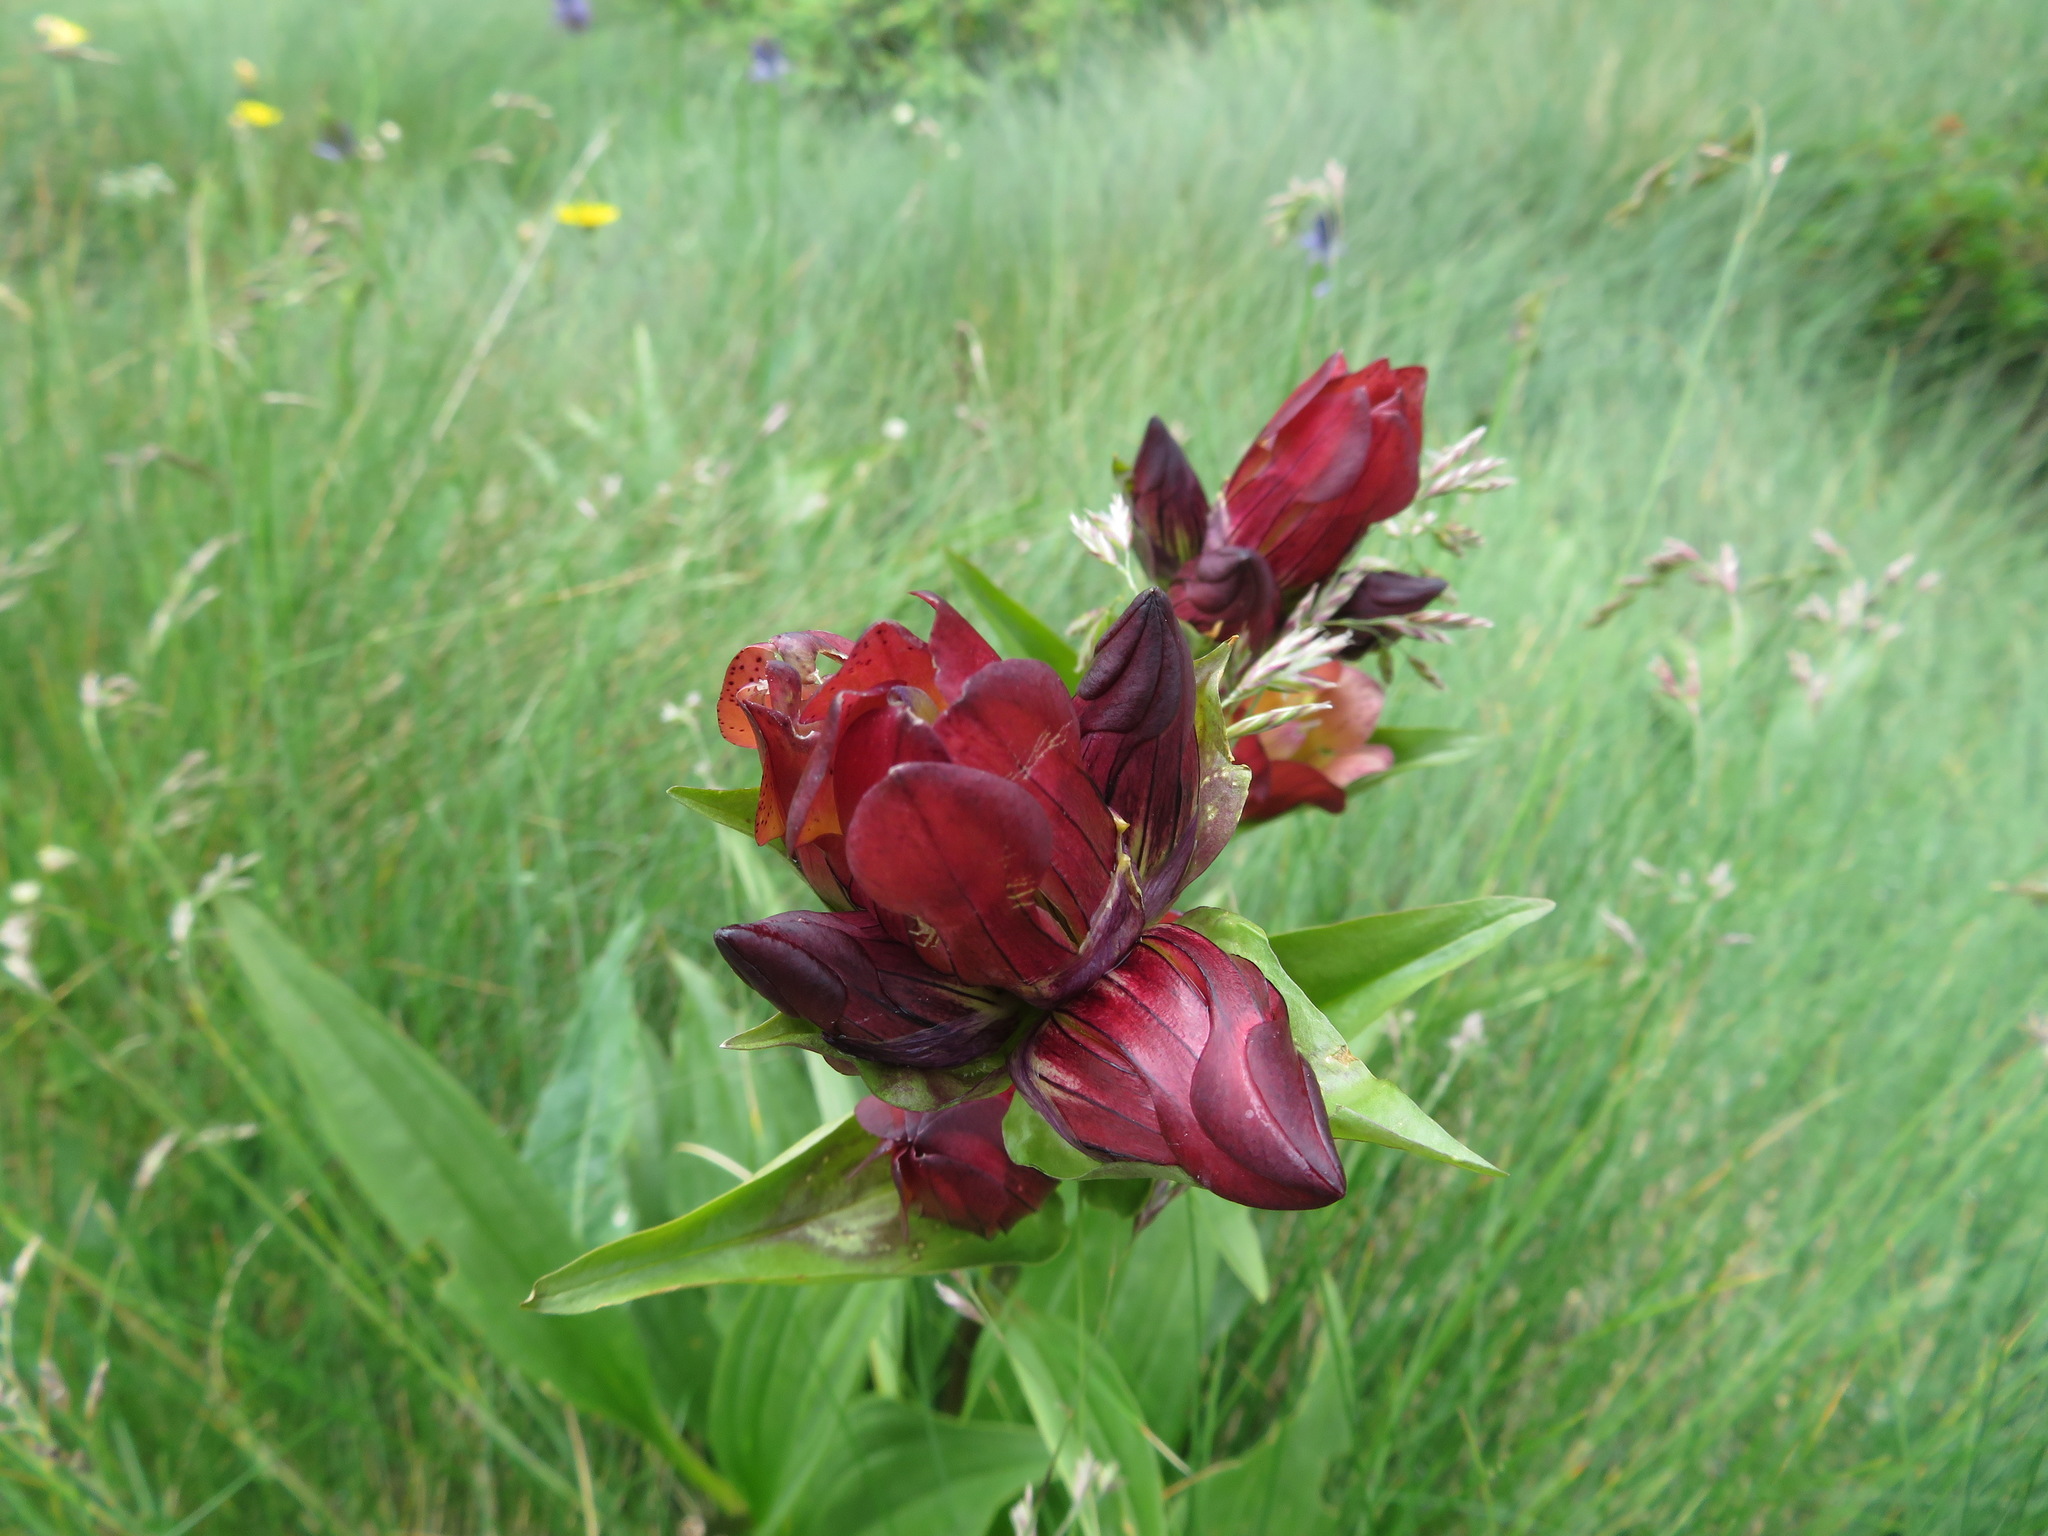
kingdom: Plantae
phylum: Tracheophyta
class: Magnoliopsida
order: Gentianales
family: Gentianaceae
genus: Gentiana
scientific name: Gentiana purpurea
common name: Purple gentian
